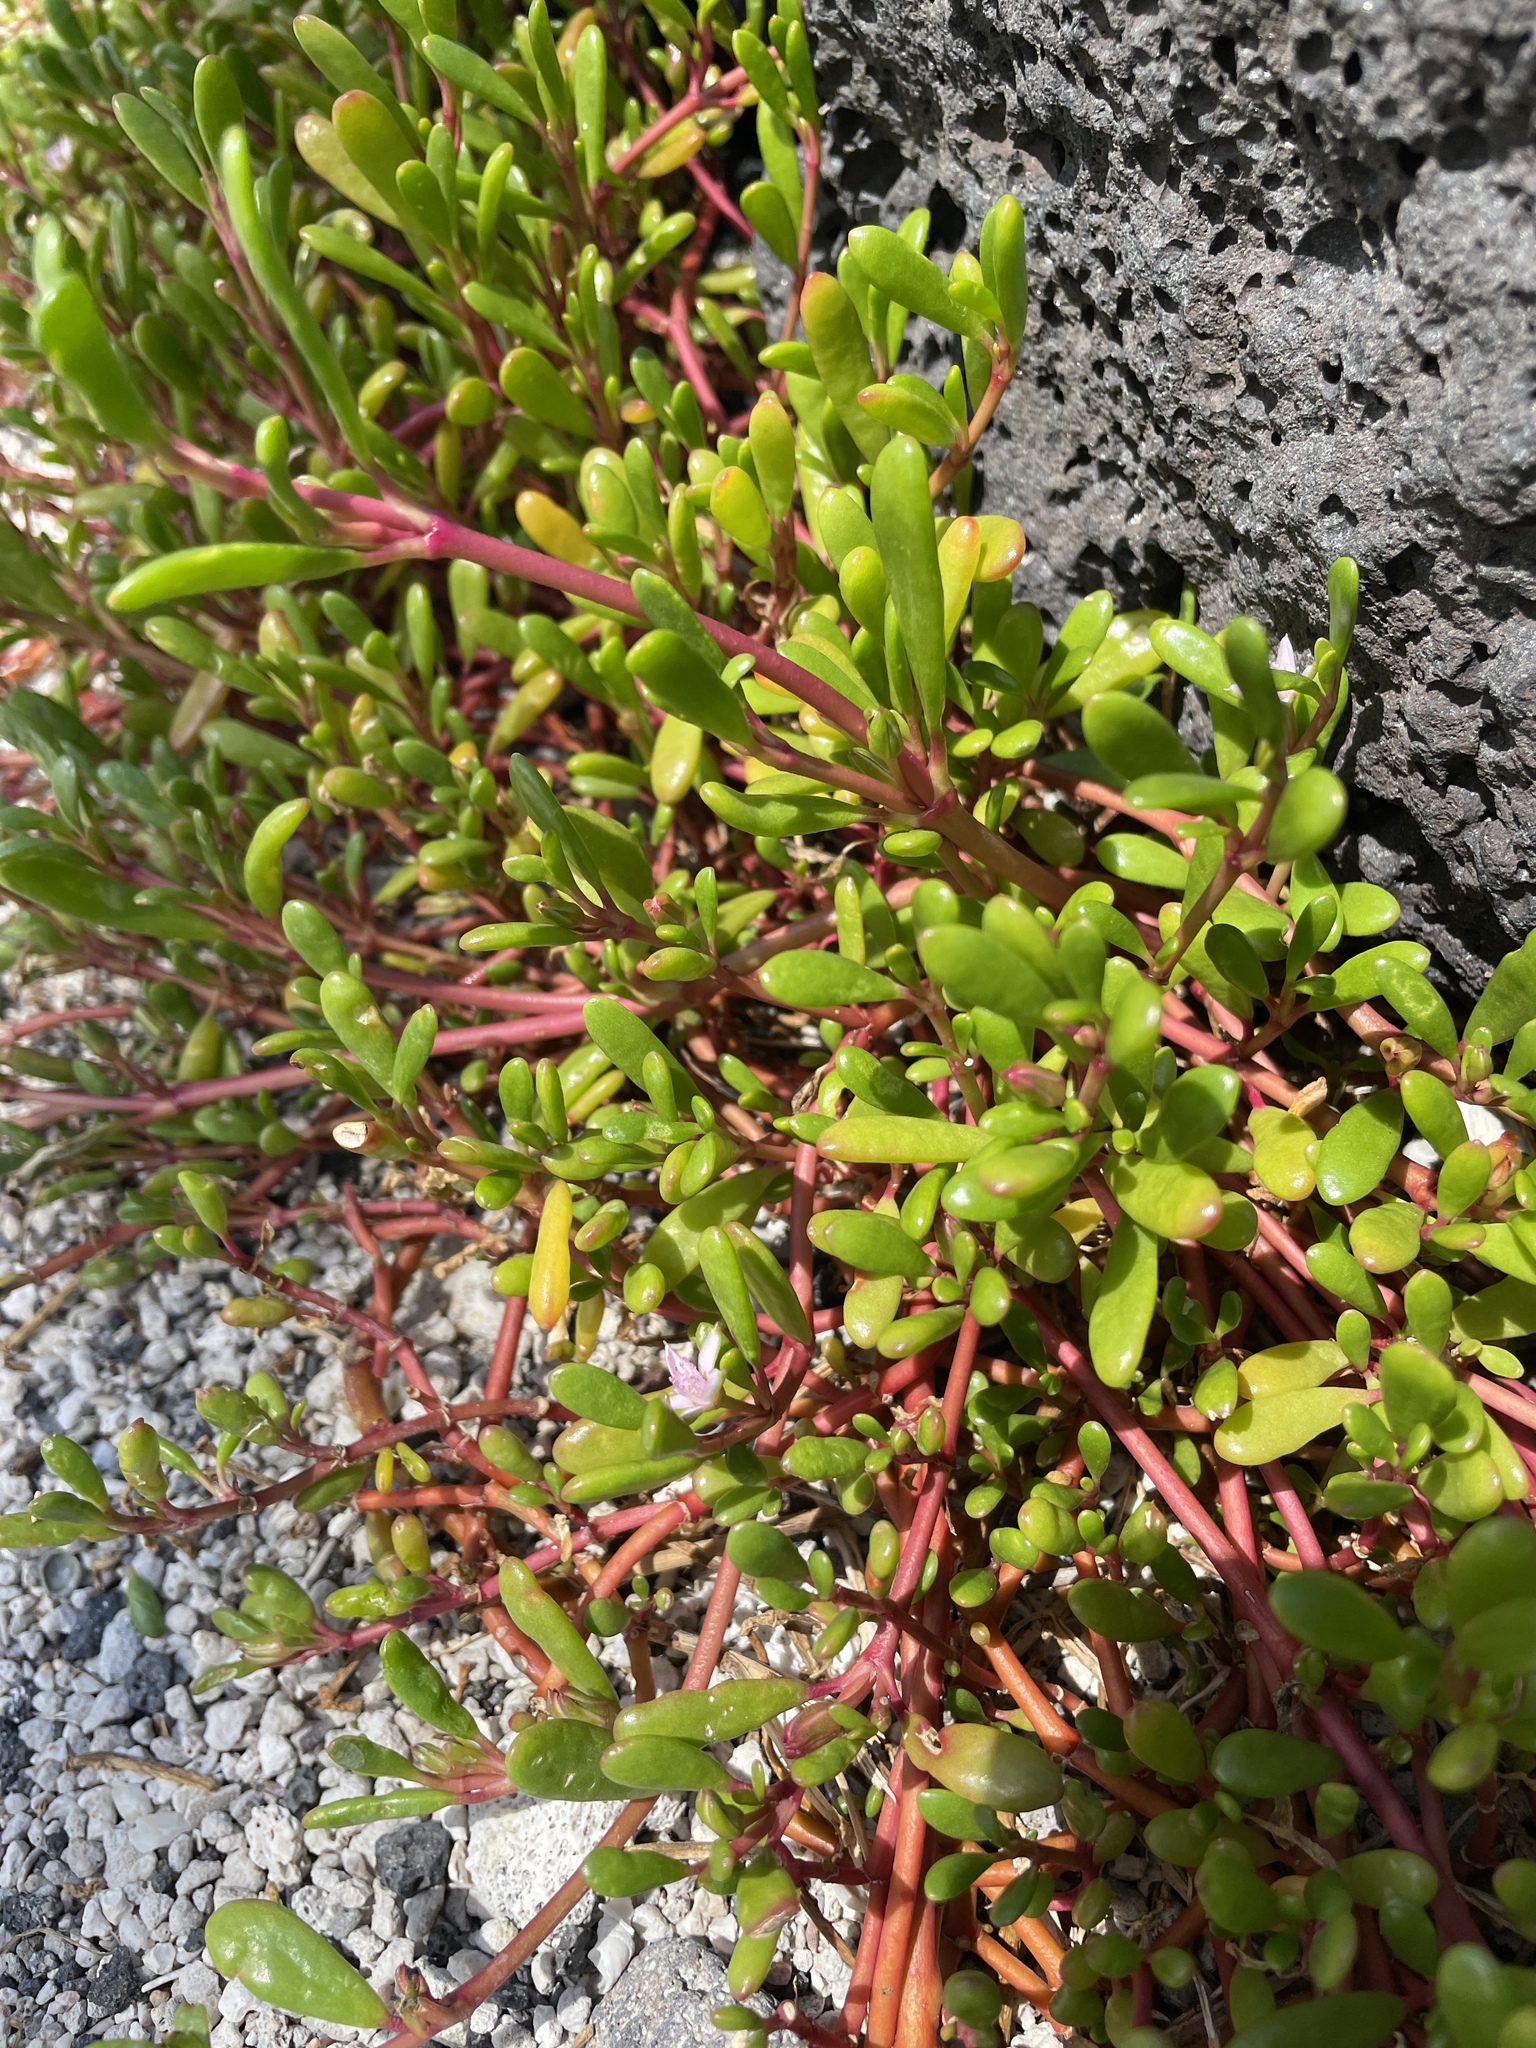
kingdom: Plantae
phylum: Tracheophyta
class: Magnoliopsida
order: Caryophyllales
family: Aizoaceae
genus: Sesuvium
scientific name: Sesuvium portulacastrum
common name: Sea-purslane
